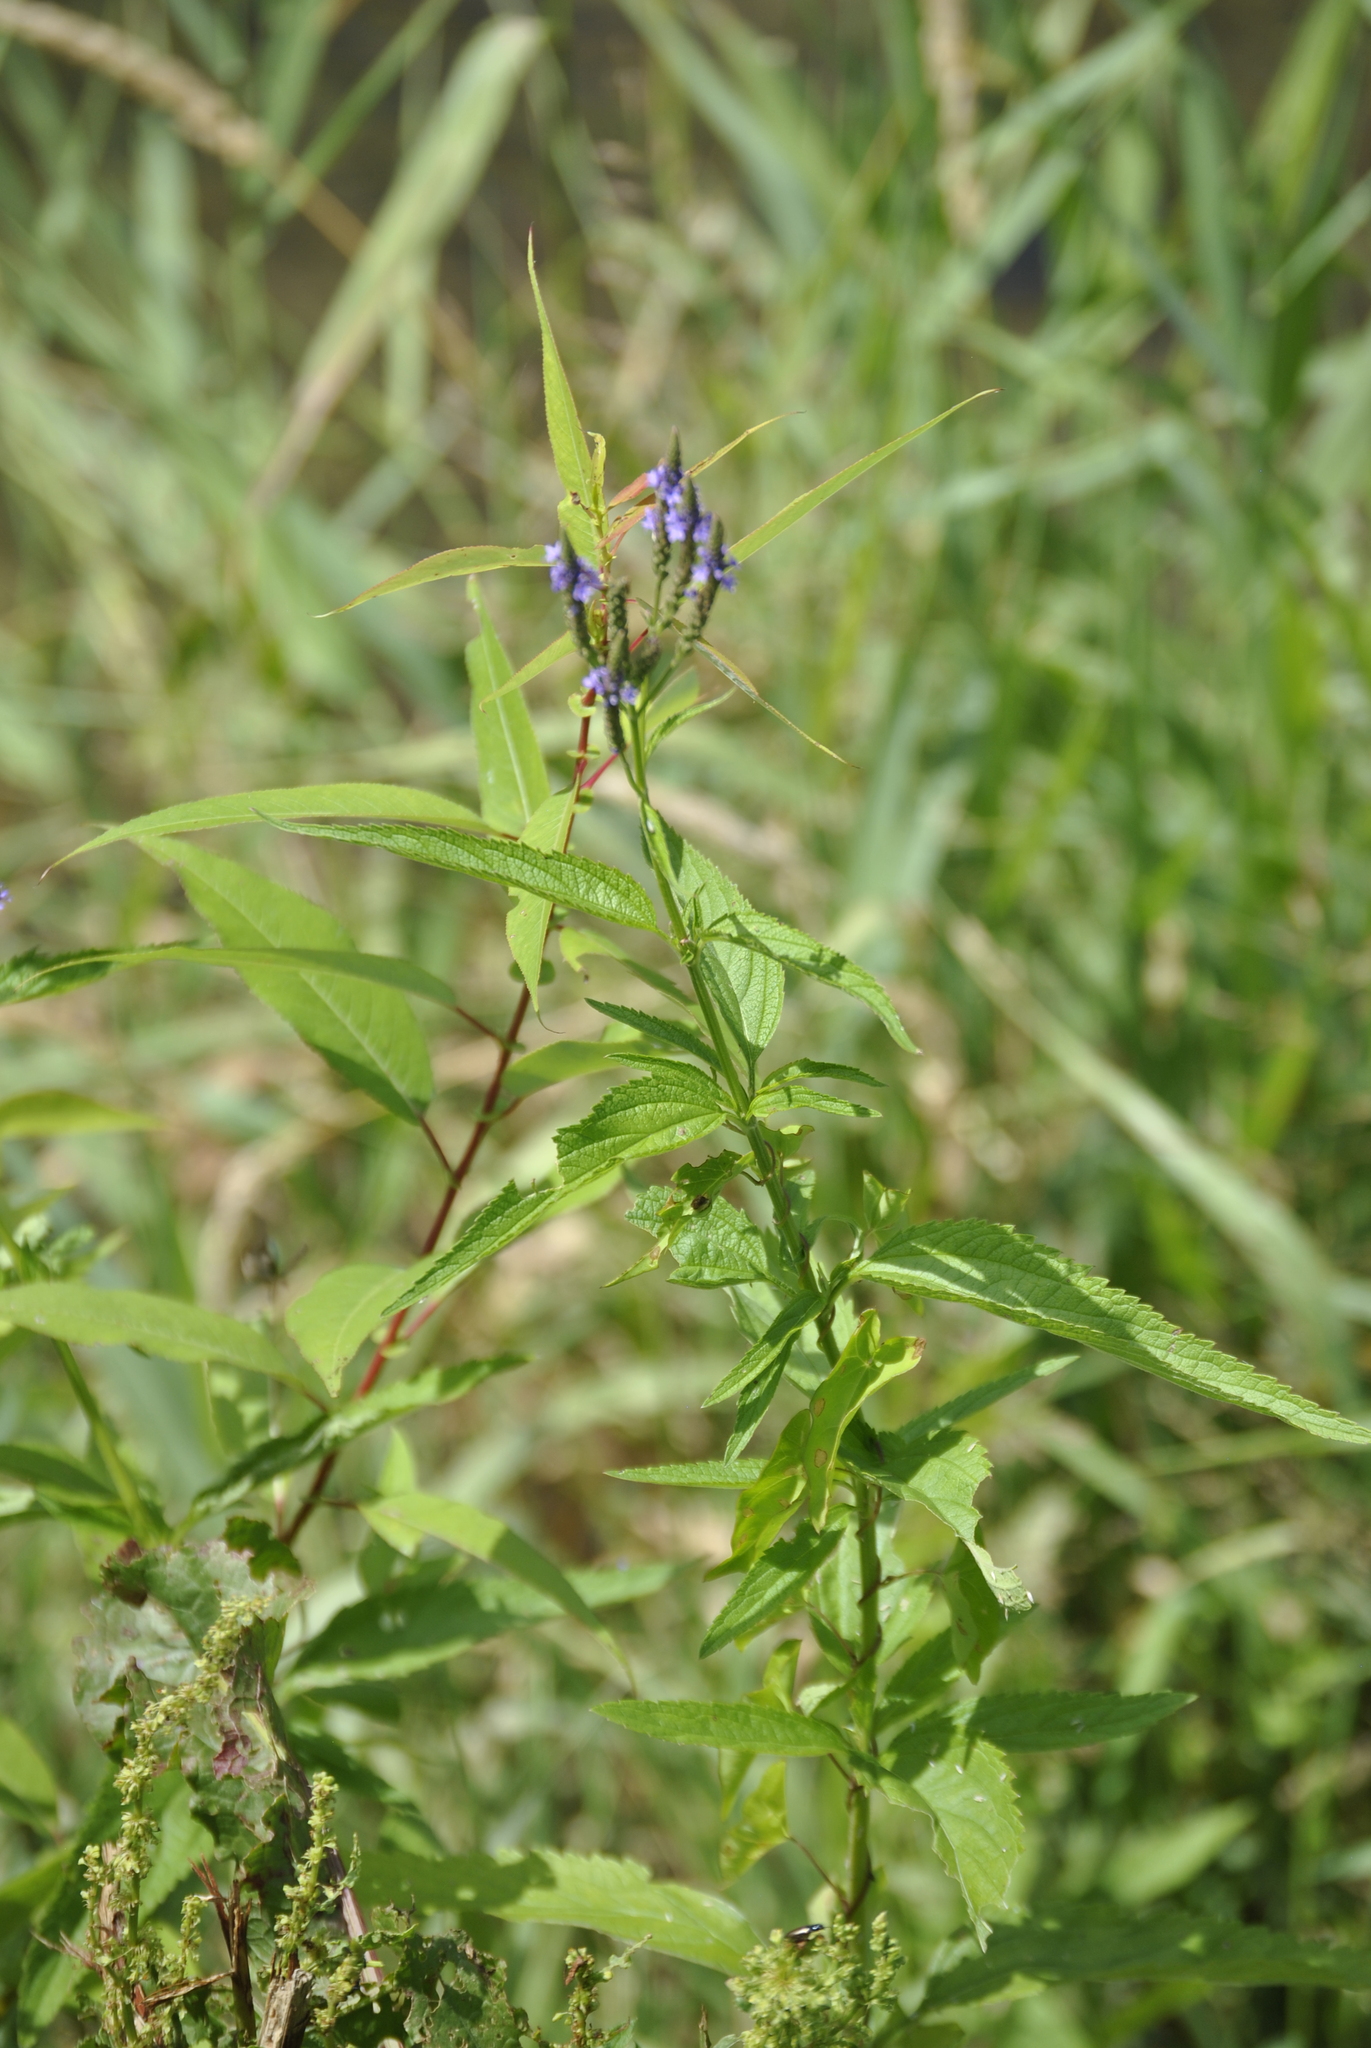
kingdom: Plantae
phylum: Tracheophyta
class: Magnoliopsida
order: Lamiales
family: Verbenaceae
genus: Verbena
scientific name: Verbena hastata
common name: American blue vervain
